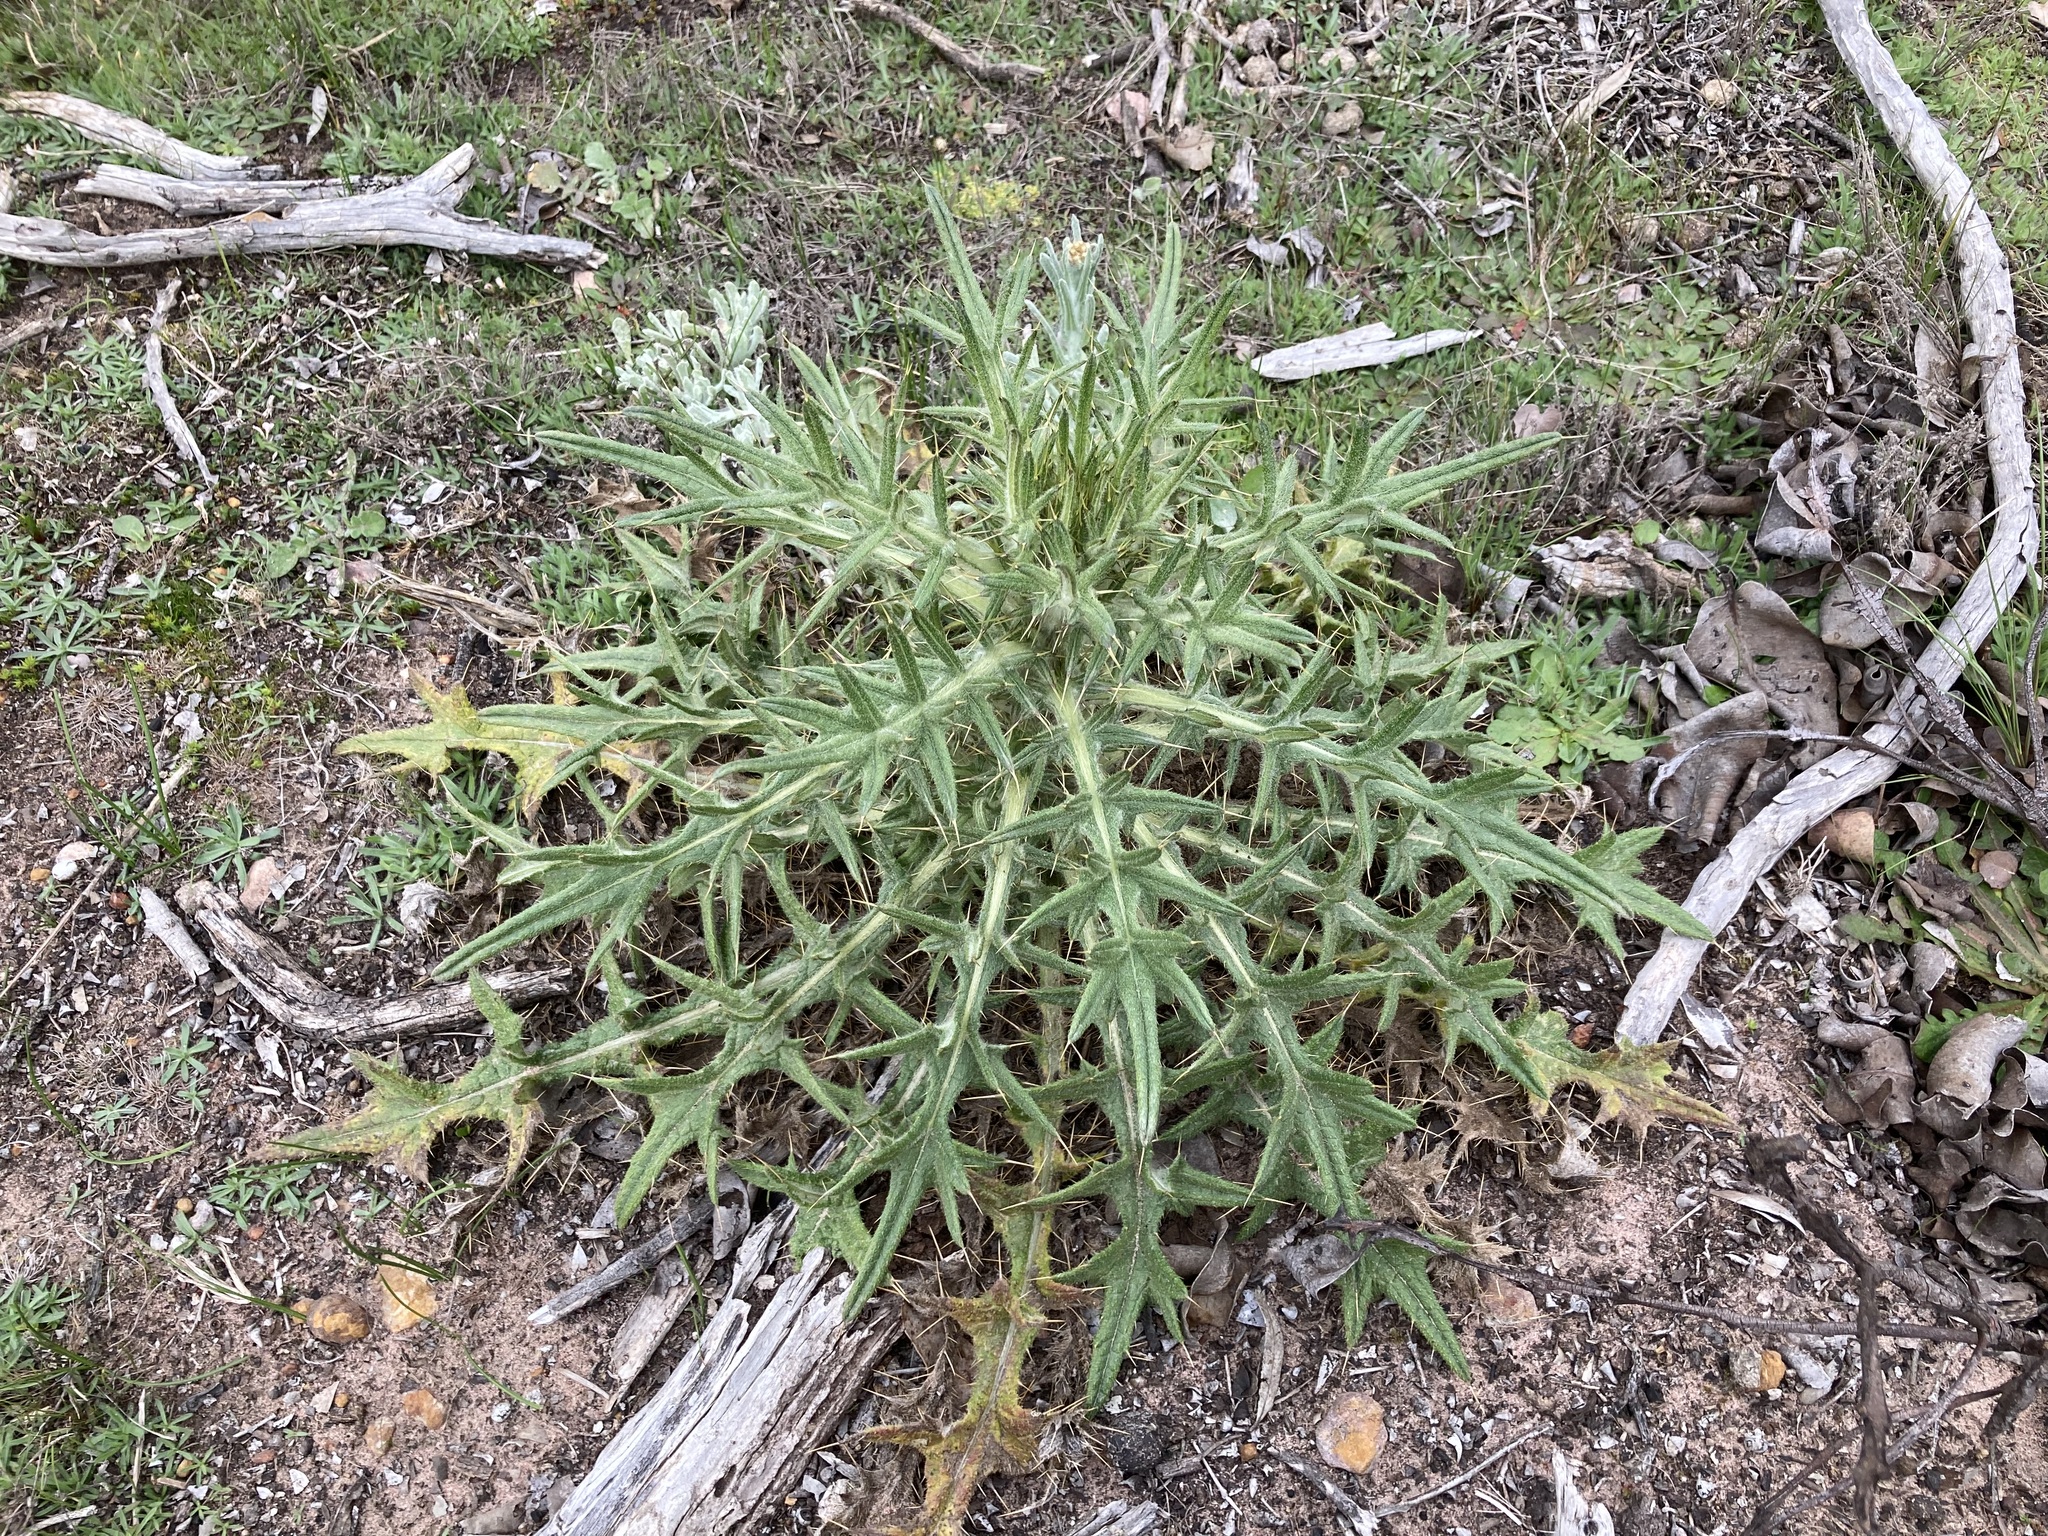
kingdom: Plantae
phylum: Tracheophyta
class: Magnoliopsida
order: Asterales
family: Asteraceae
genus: Cirsium
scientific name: Cirsium vulgare
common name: Bull thistle
